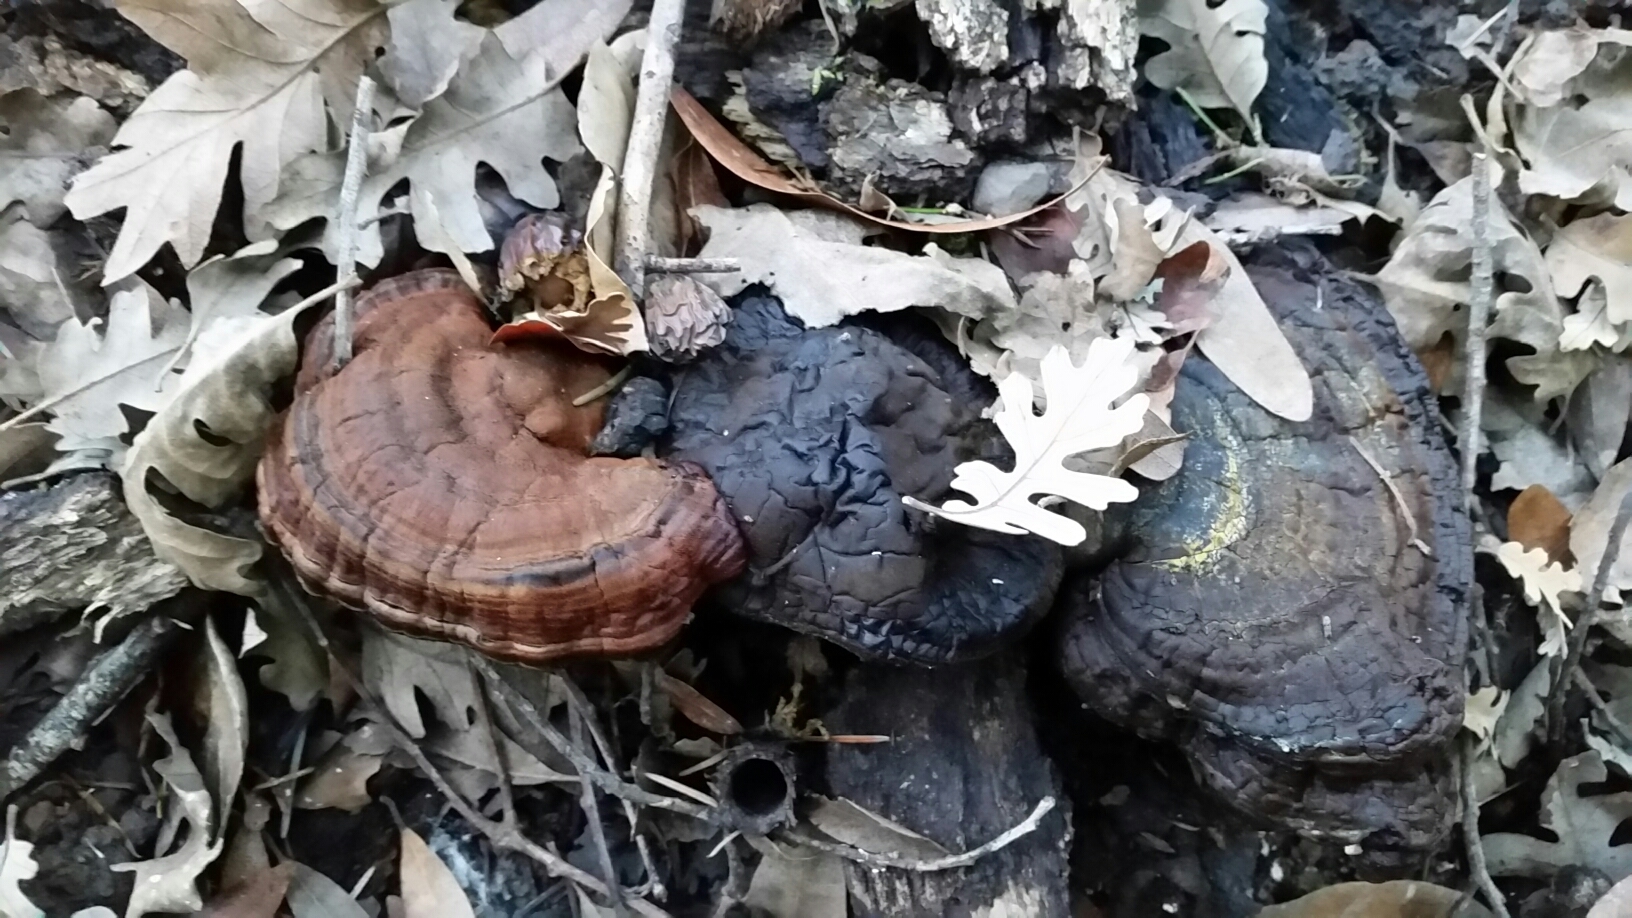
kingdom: Animalia
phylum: Arthropoda
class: Arachnida
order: Araneae
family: Antrodiaetidae
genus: Atypoides
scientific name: Atypoides riversi
